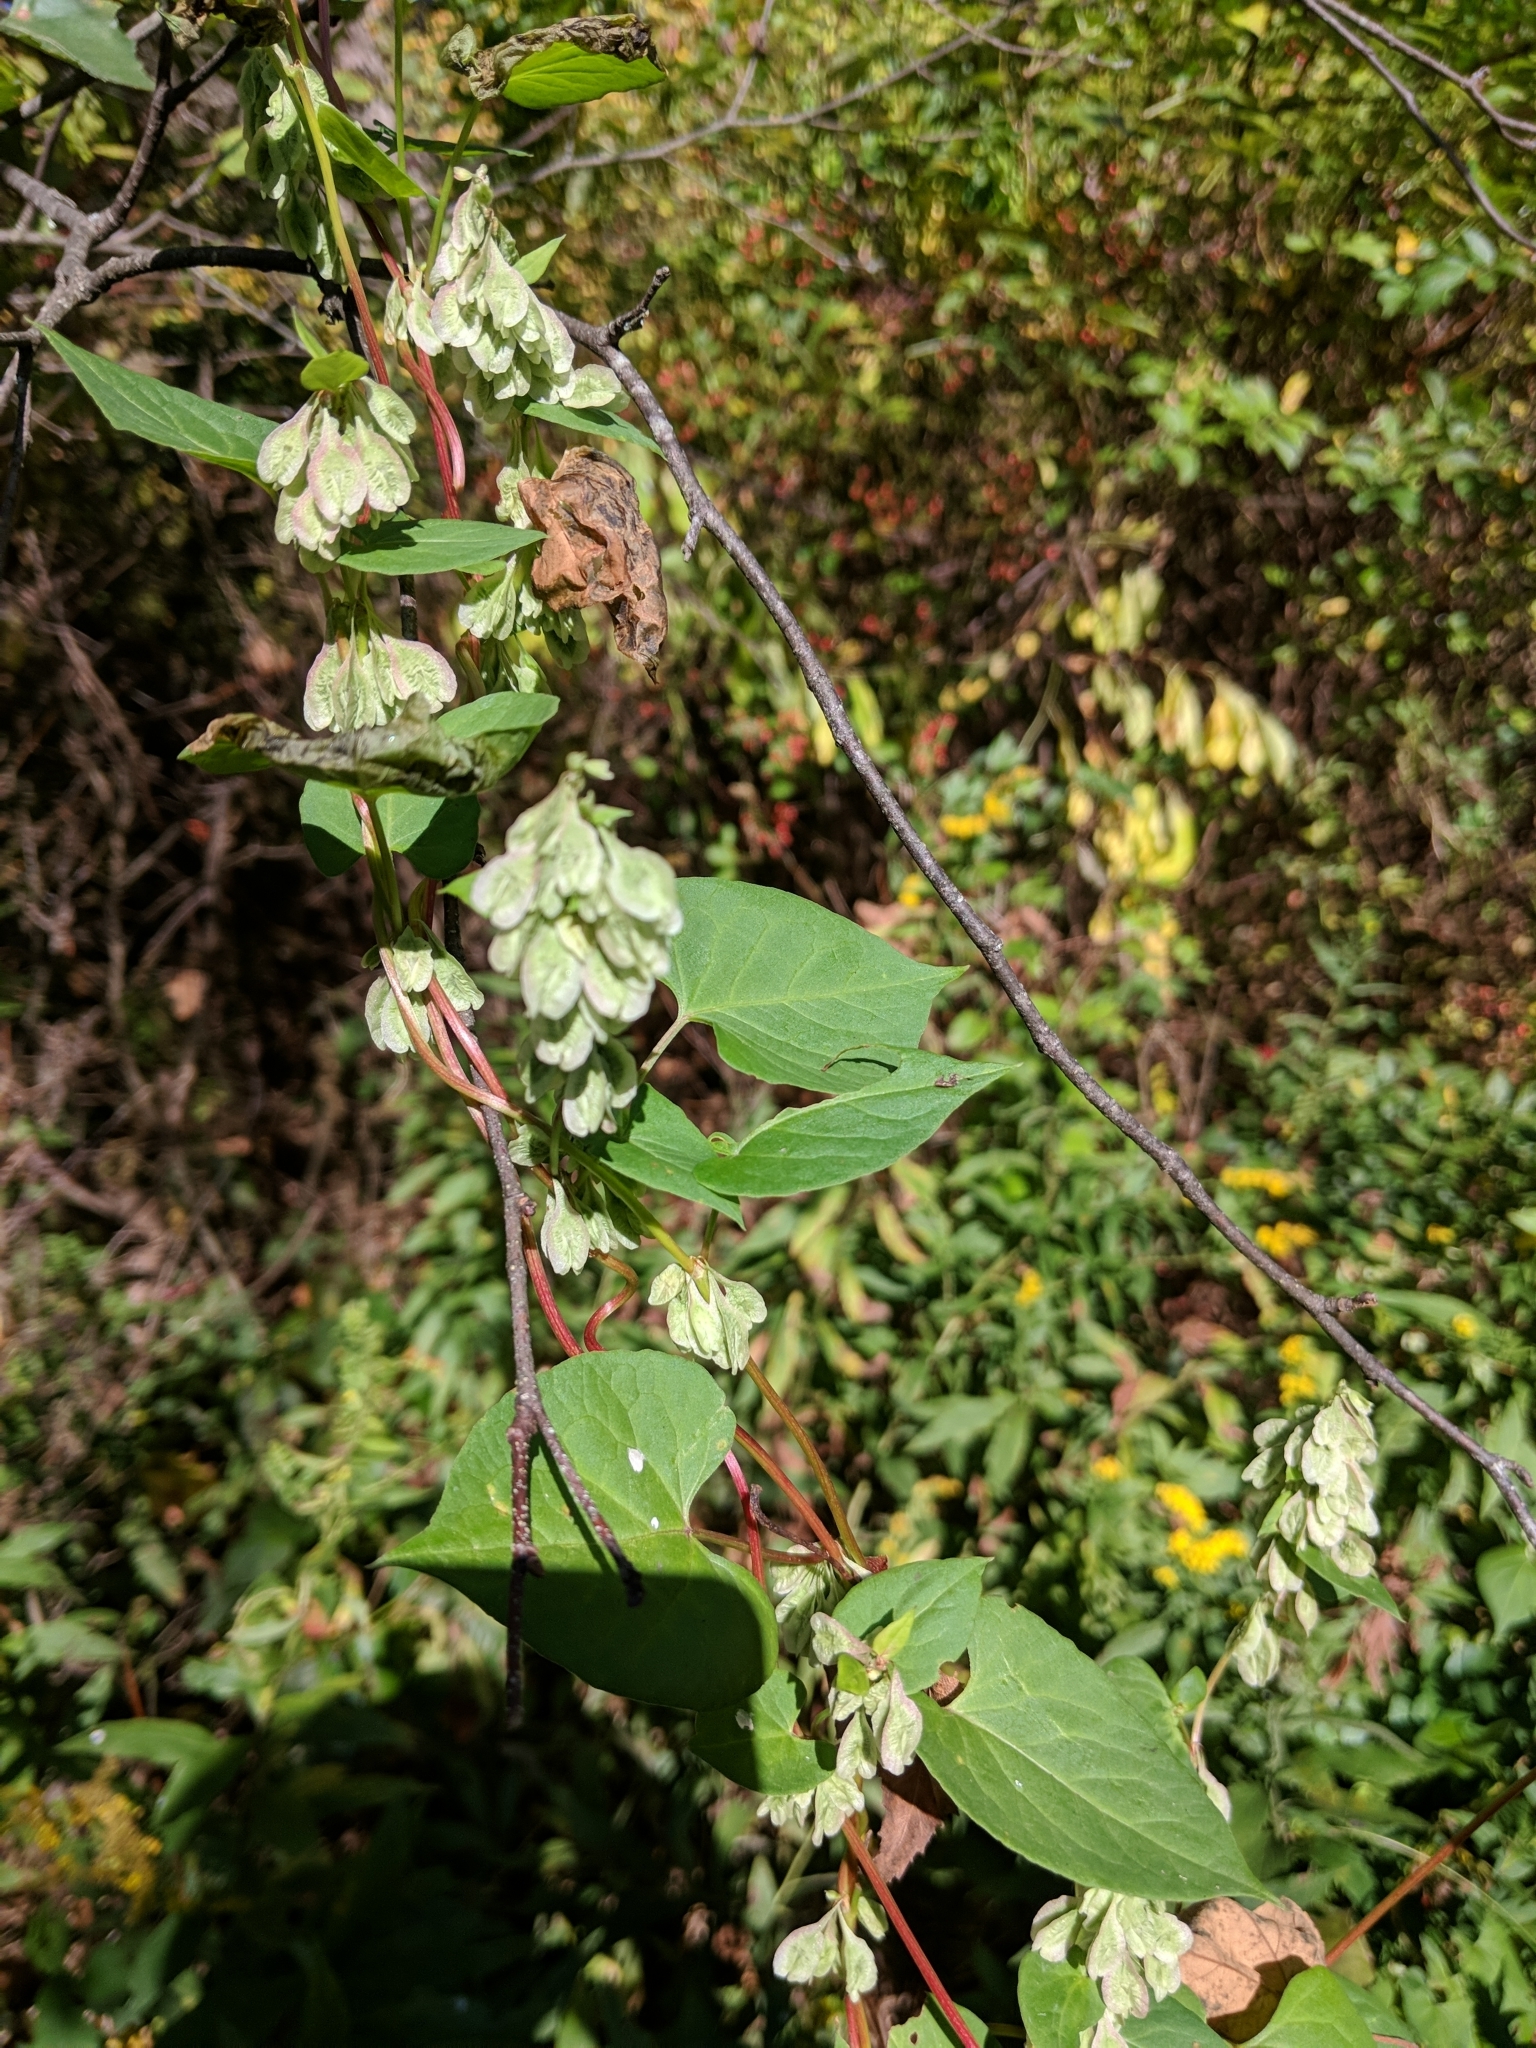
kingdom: Plantae
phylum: Tracheophyta
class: Magnoliopsida
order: Caryophyllales
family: Polygonaceae
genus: Fallopia
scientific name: Fallopia scandens
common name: Climbing false buckwheat
